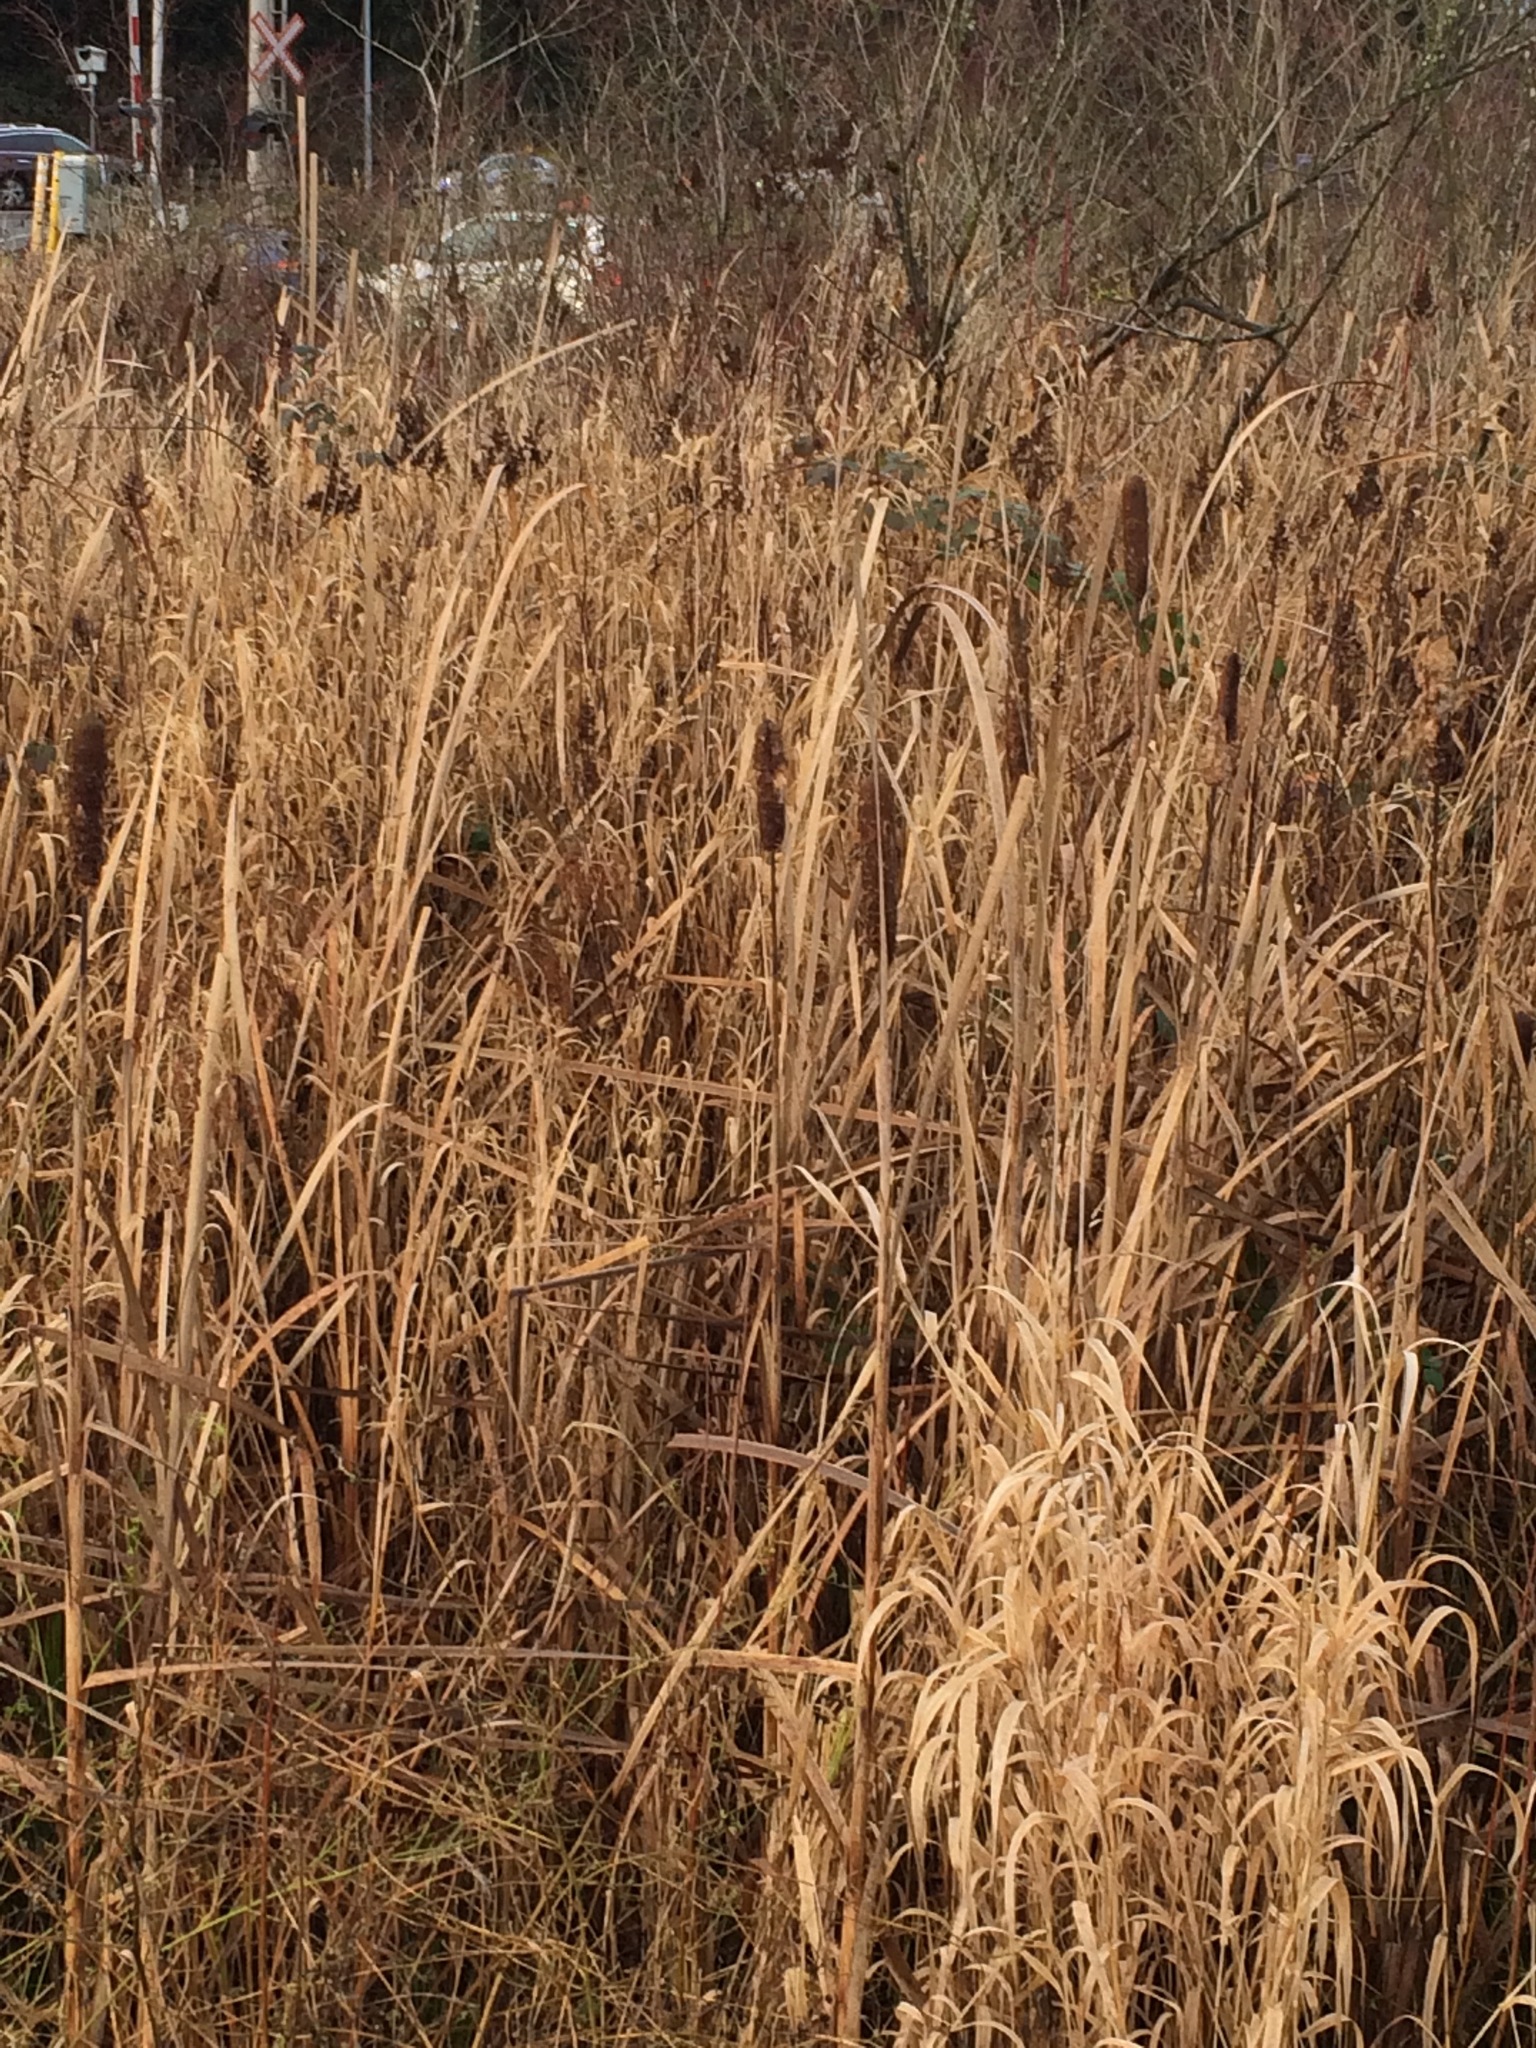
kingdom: Plantae
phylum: Tracheophyta
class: Liliopsida
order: Poales
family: Typhaceae
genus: Typha
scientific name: Typha latifolia
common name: Broadleaf cattail
